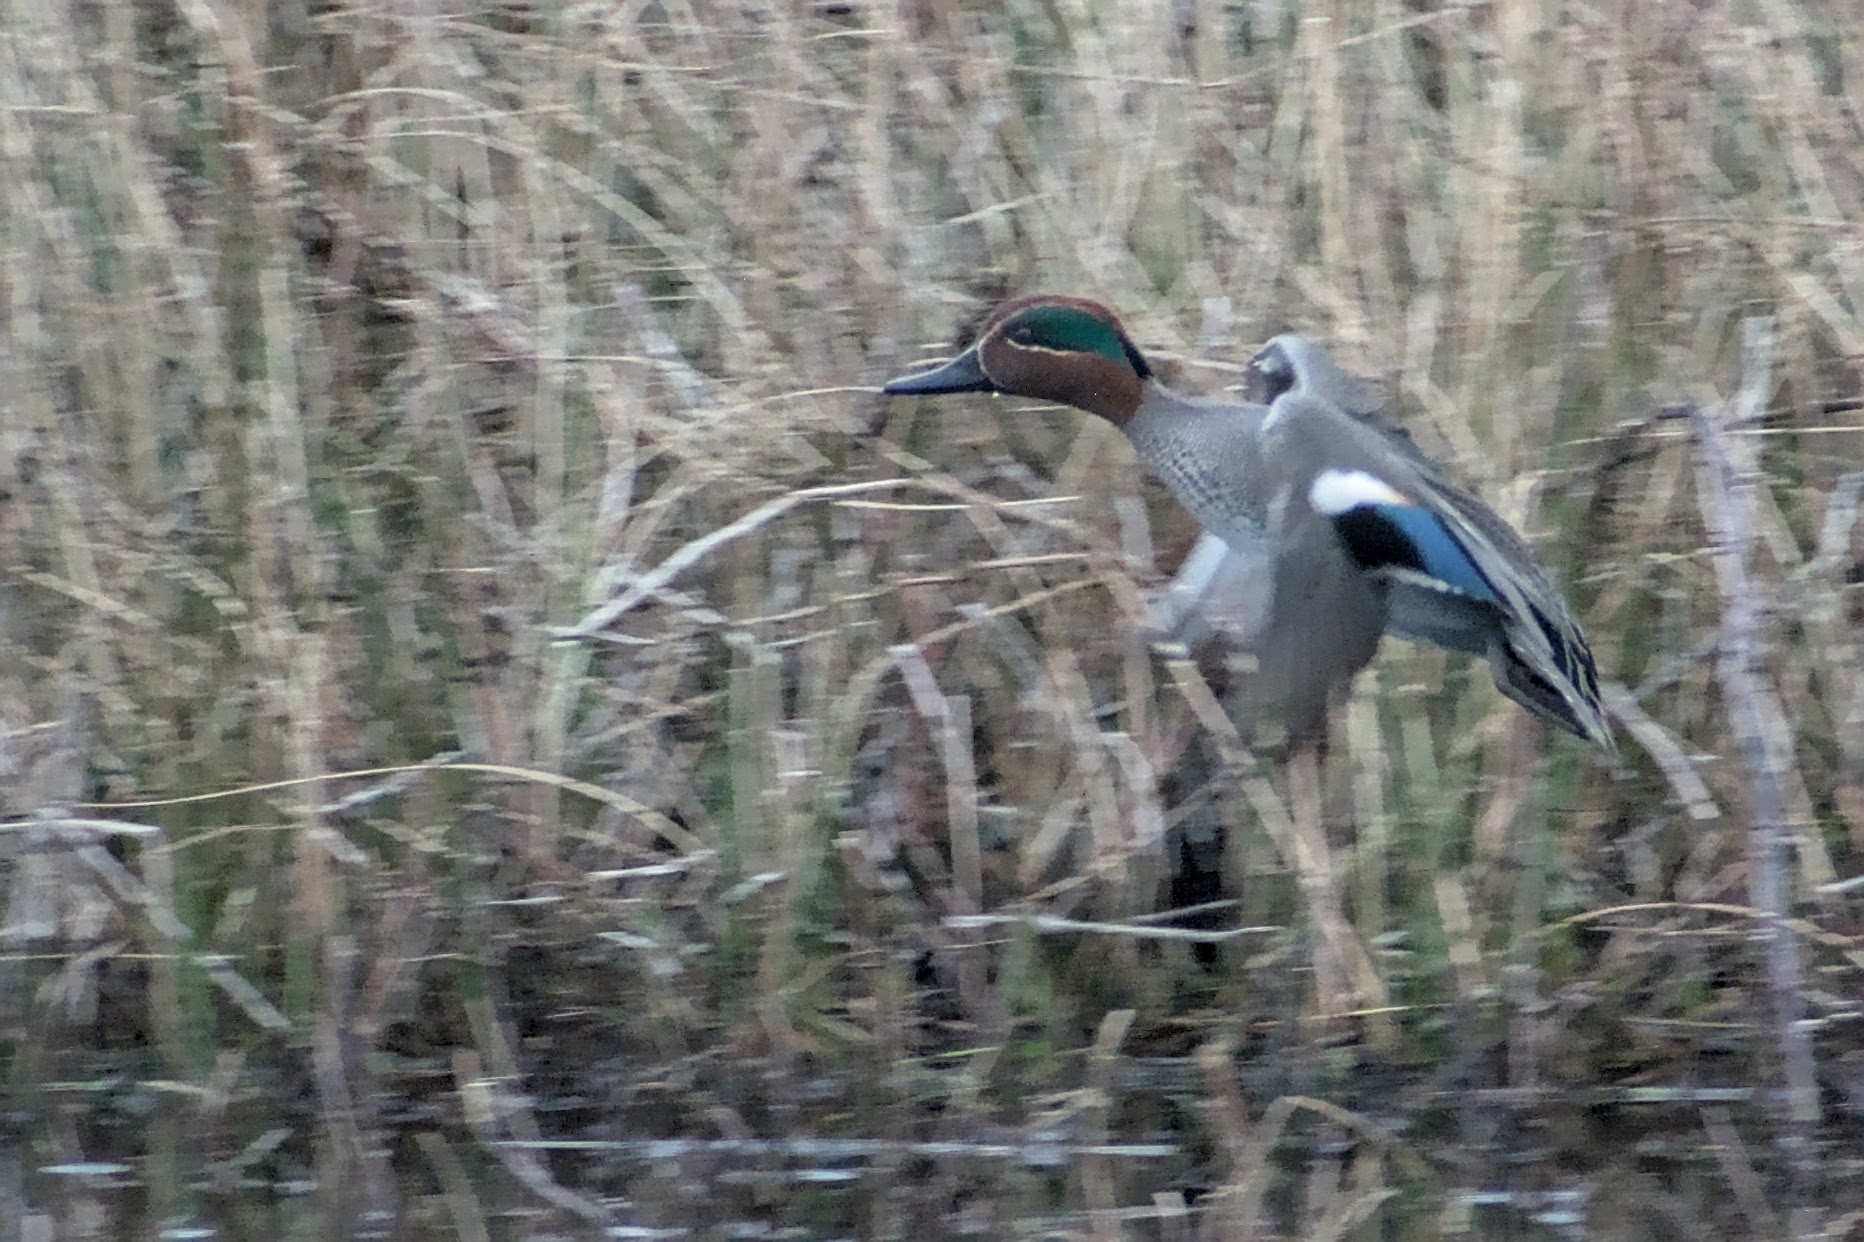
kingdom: Animalia
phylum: Chordata
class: Aves
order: Anseriformes
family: Anatidae
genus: Anas
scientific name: Anas crecca
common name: Eurasian teal
